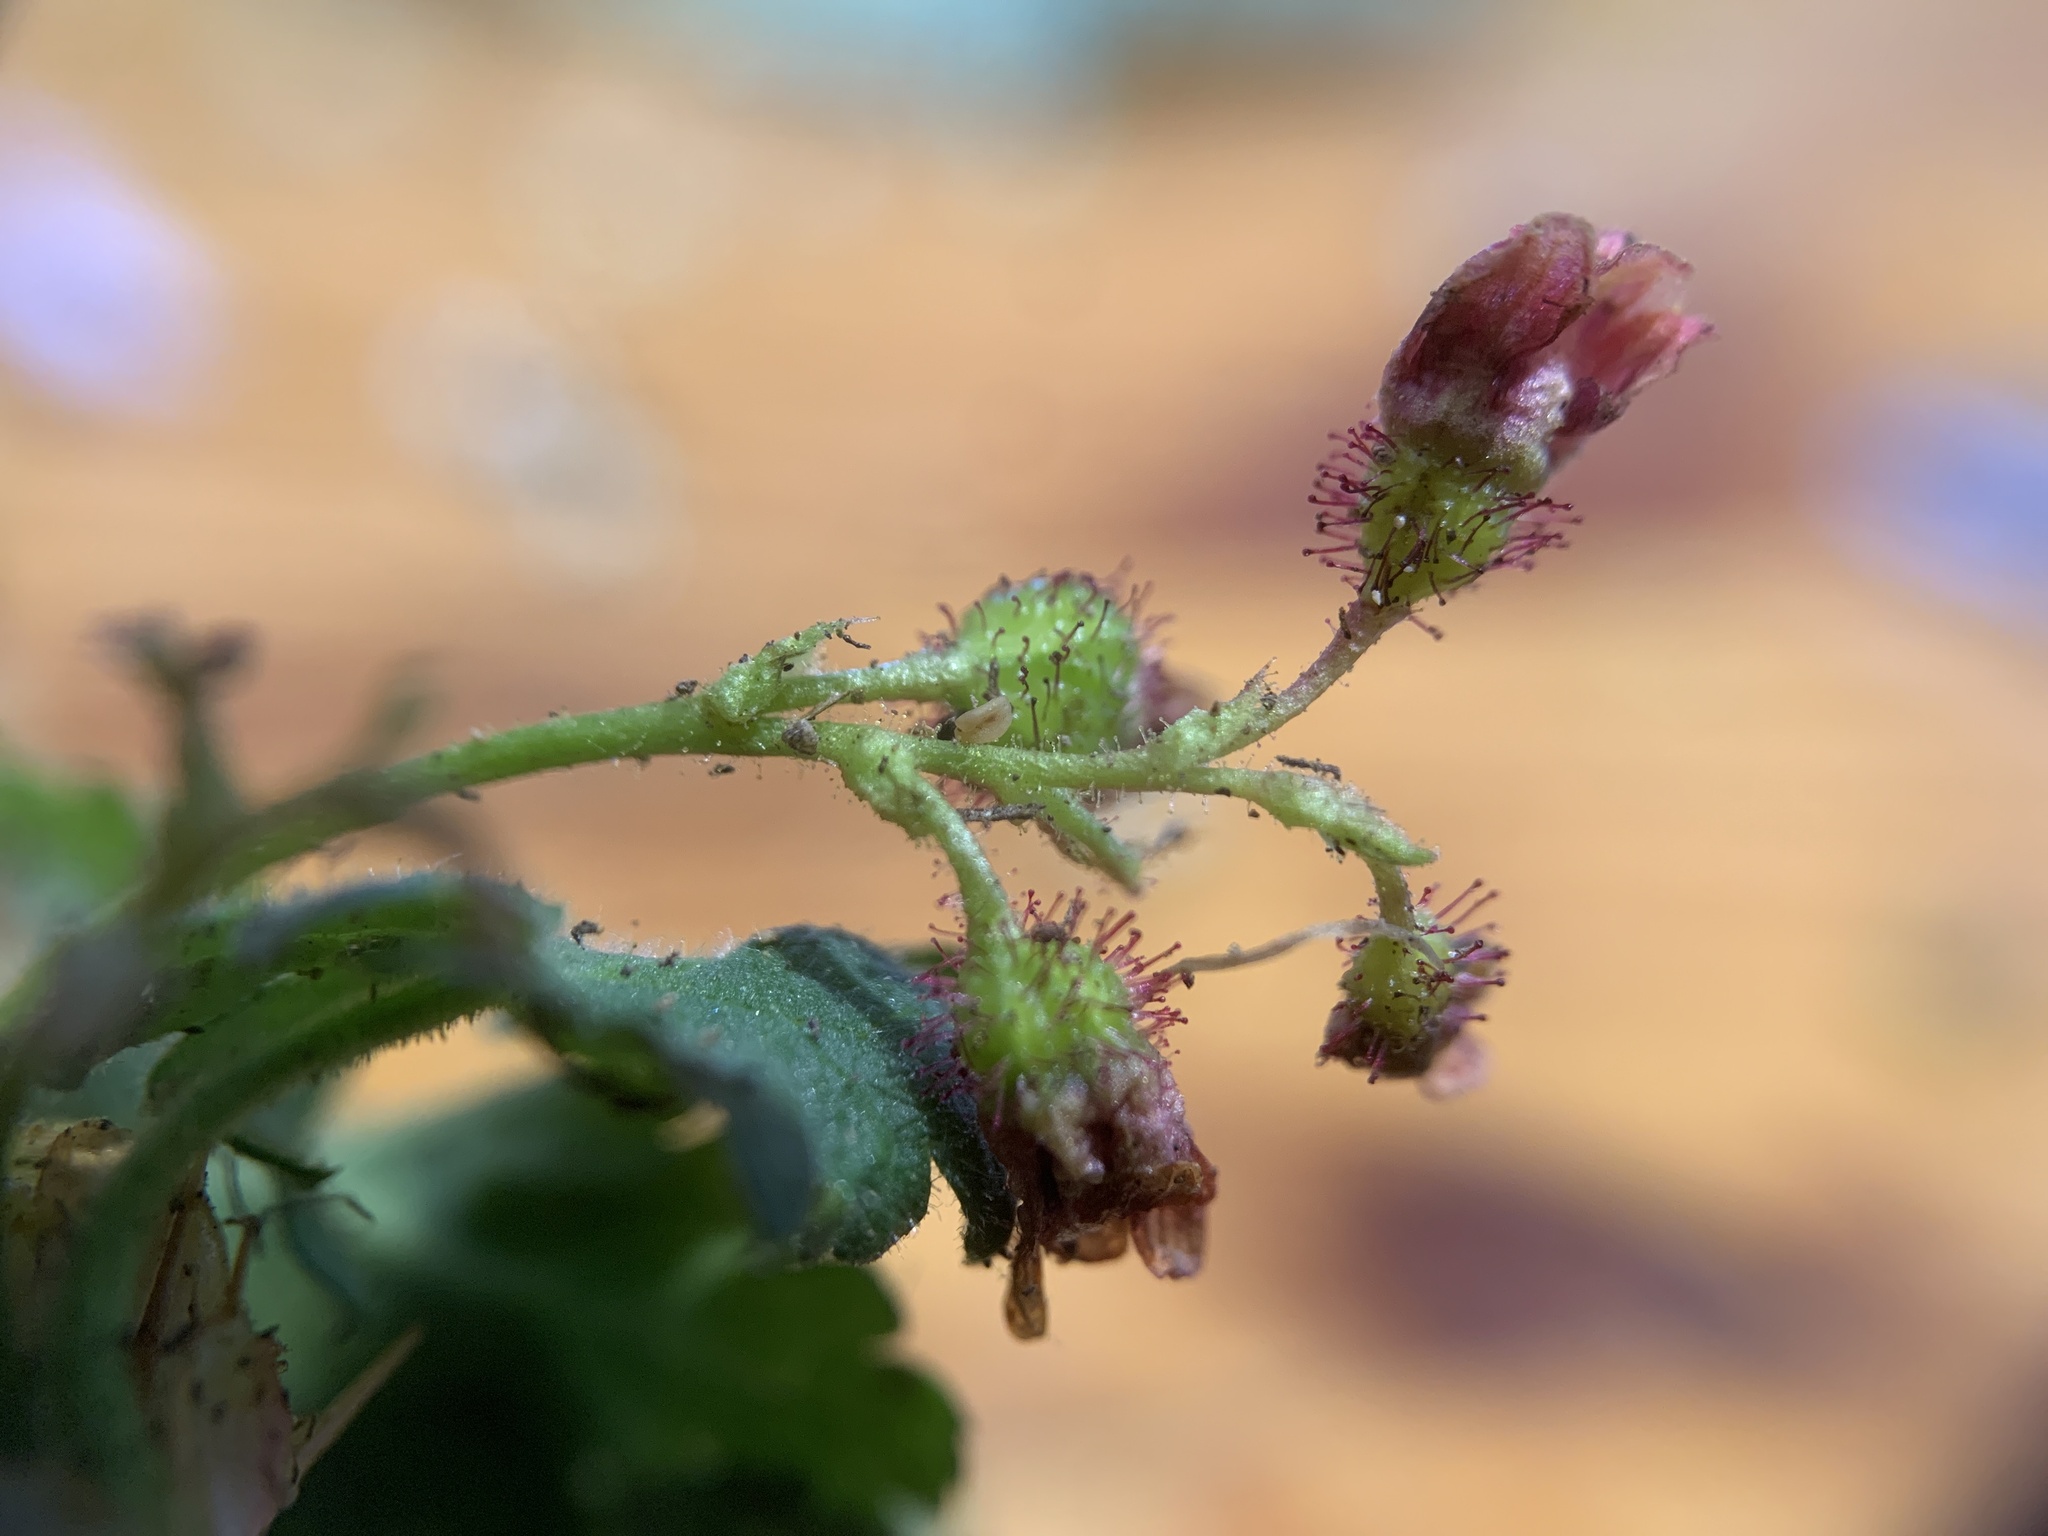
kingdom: Plantae
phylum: Tracheophyta
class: Magnoliopsida
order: Saxifragales
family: Grossulariaceae
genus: Ribes
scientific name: Ribes montigenum
